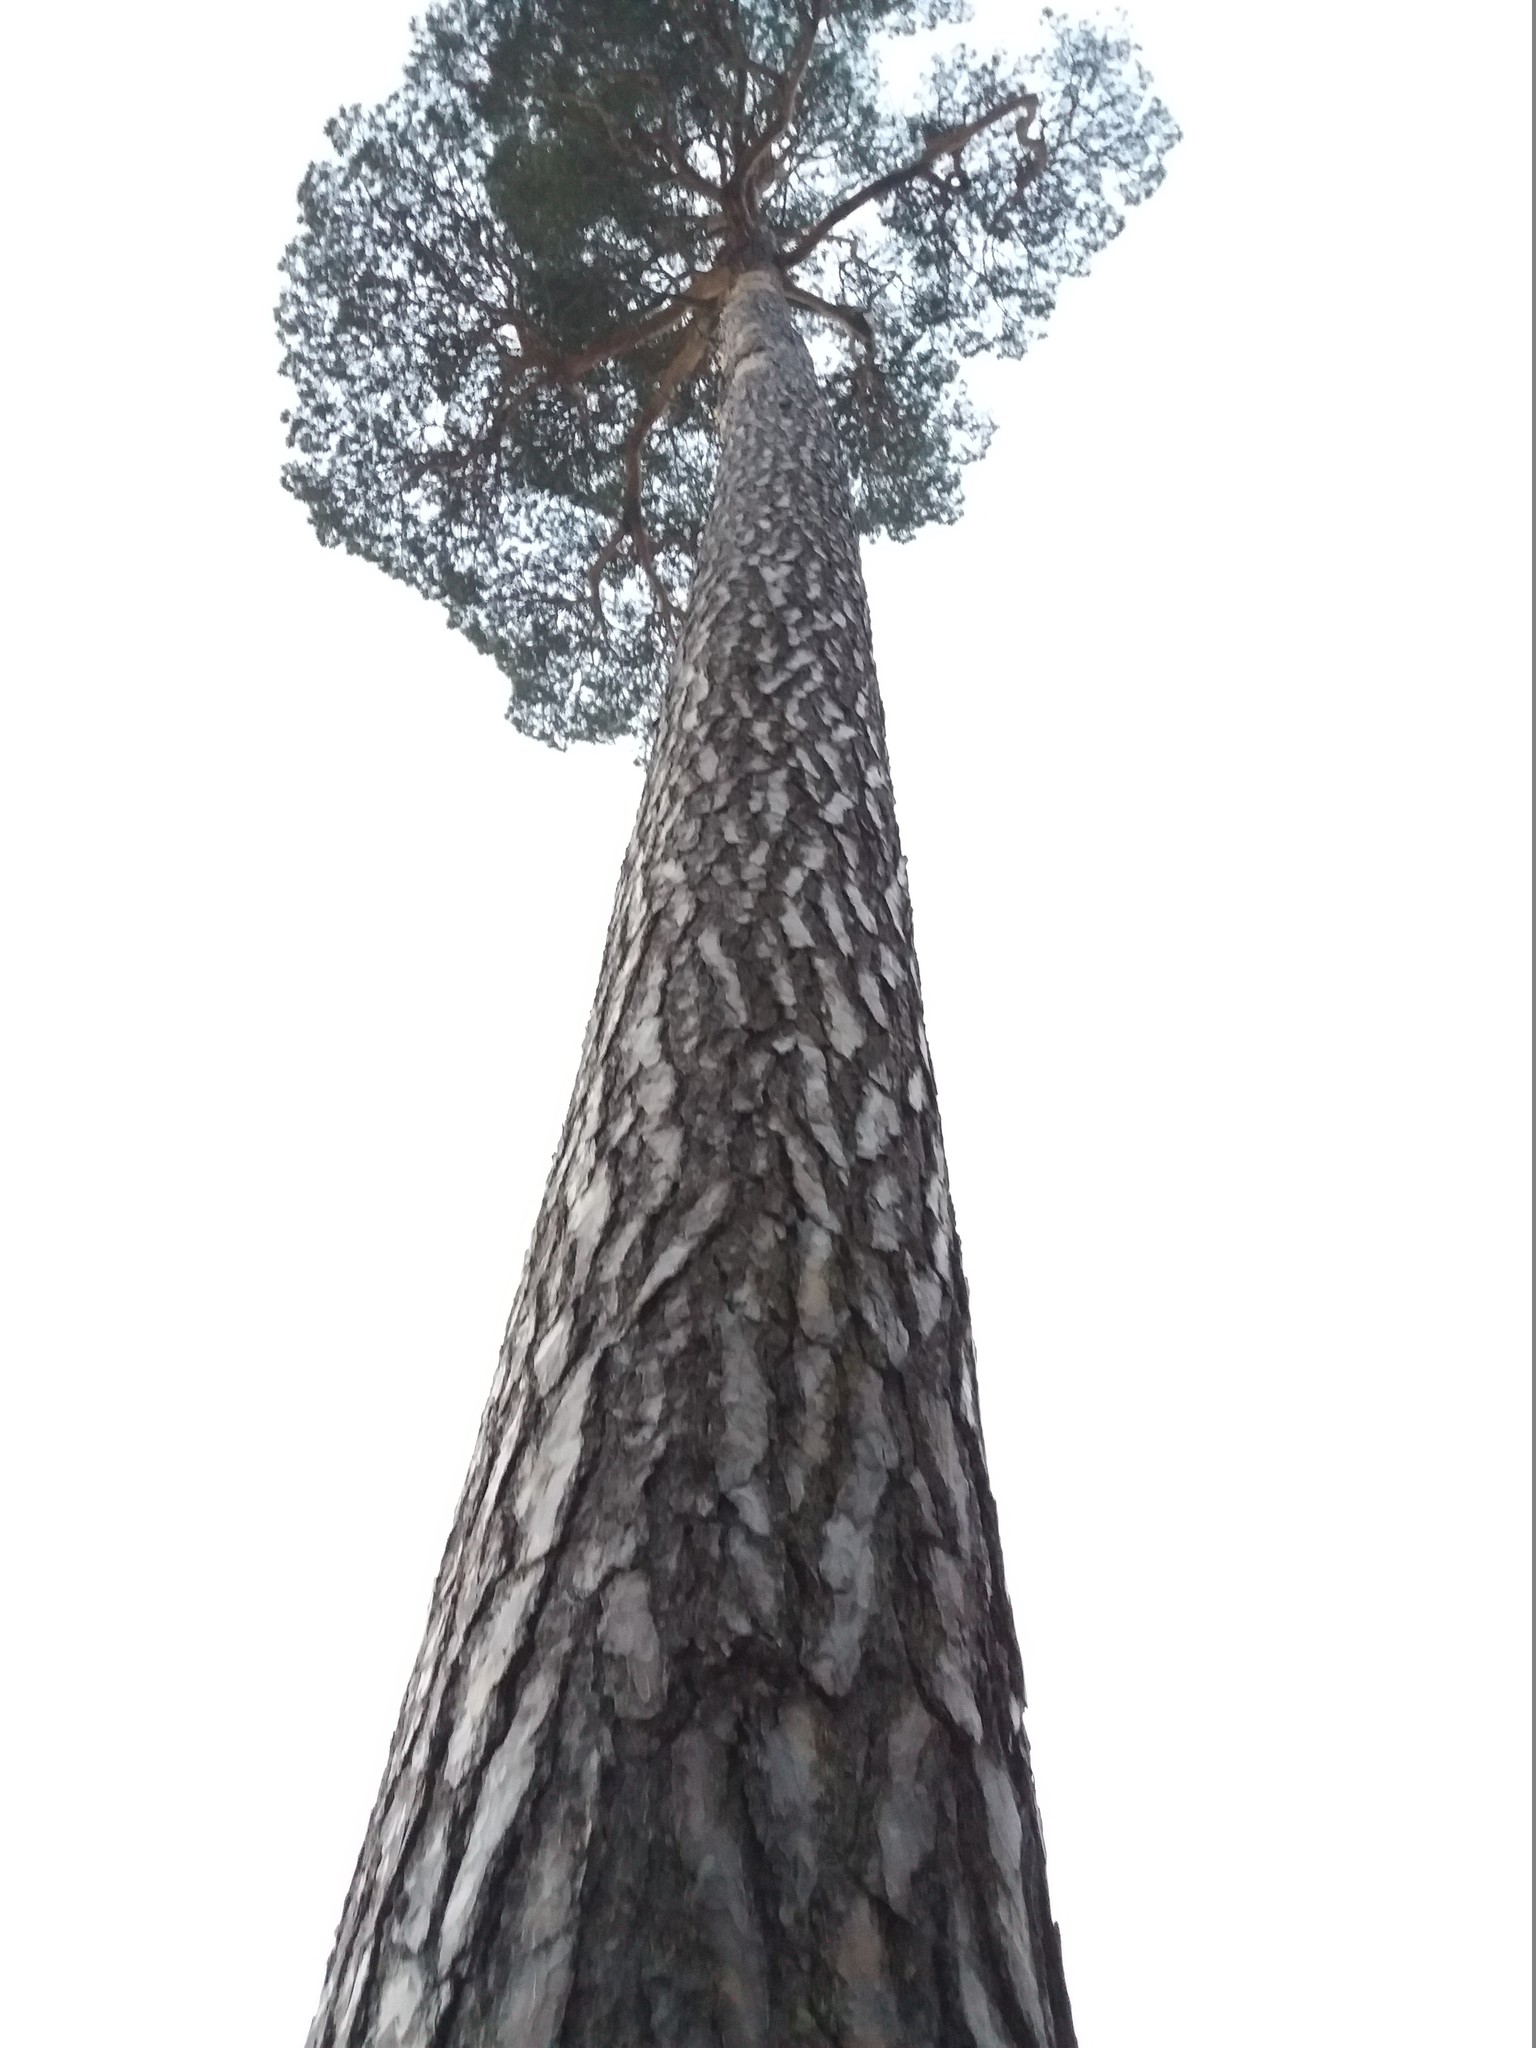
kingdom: Plantae
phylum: Tracheophyta
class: Pinopsida
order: Pinales
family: Pinaceae
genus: Pinus
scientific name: Pinus sylvestris
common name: Scots pine
